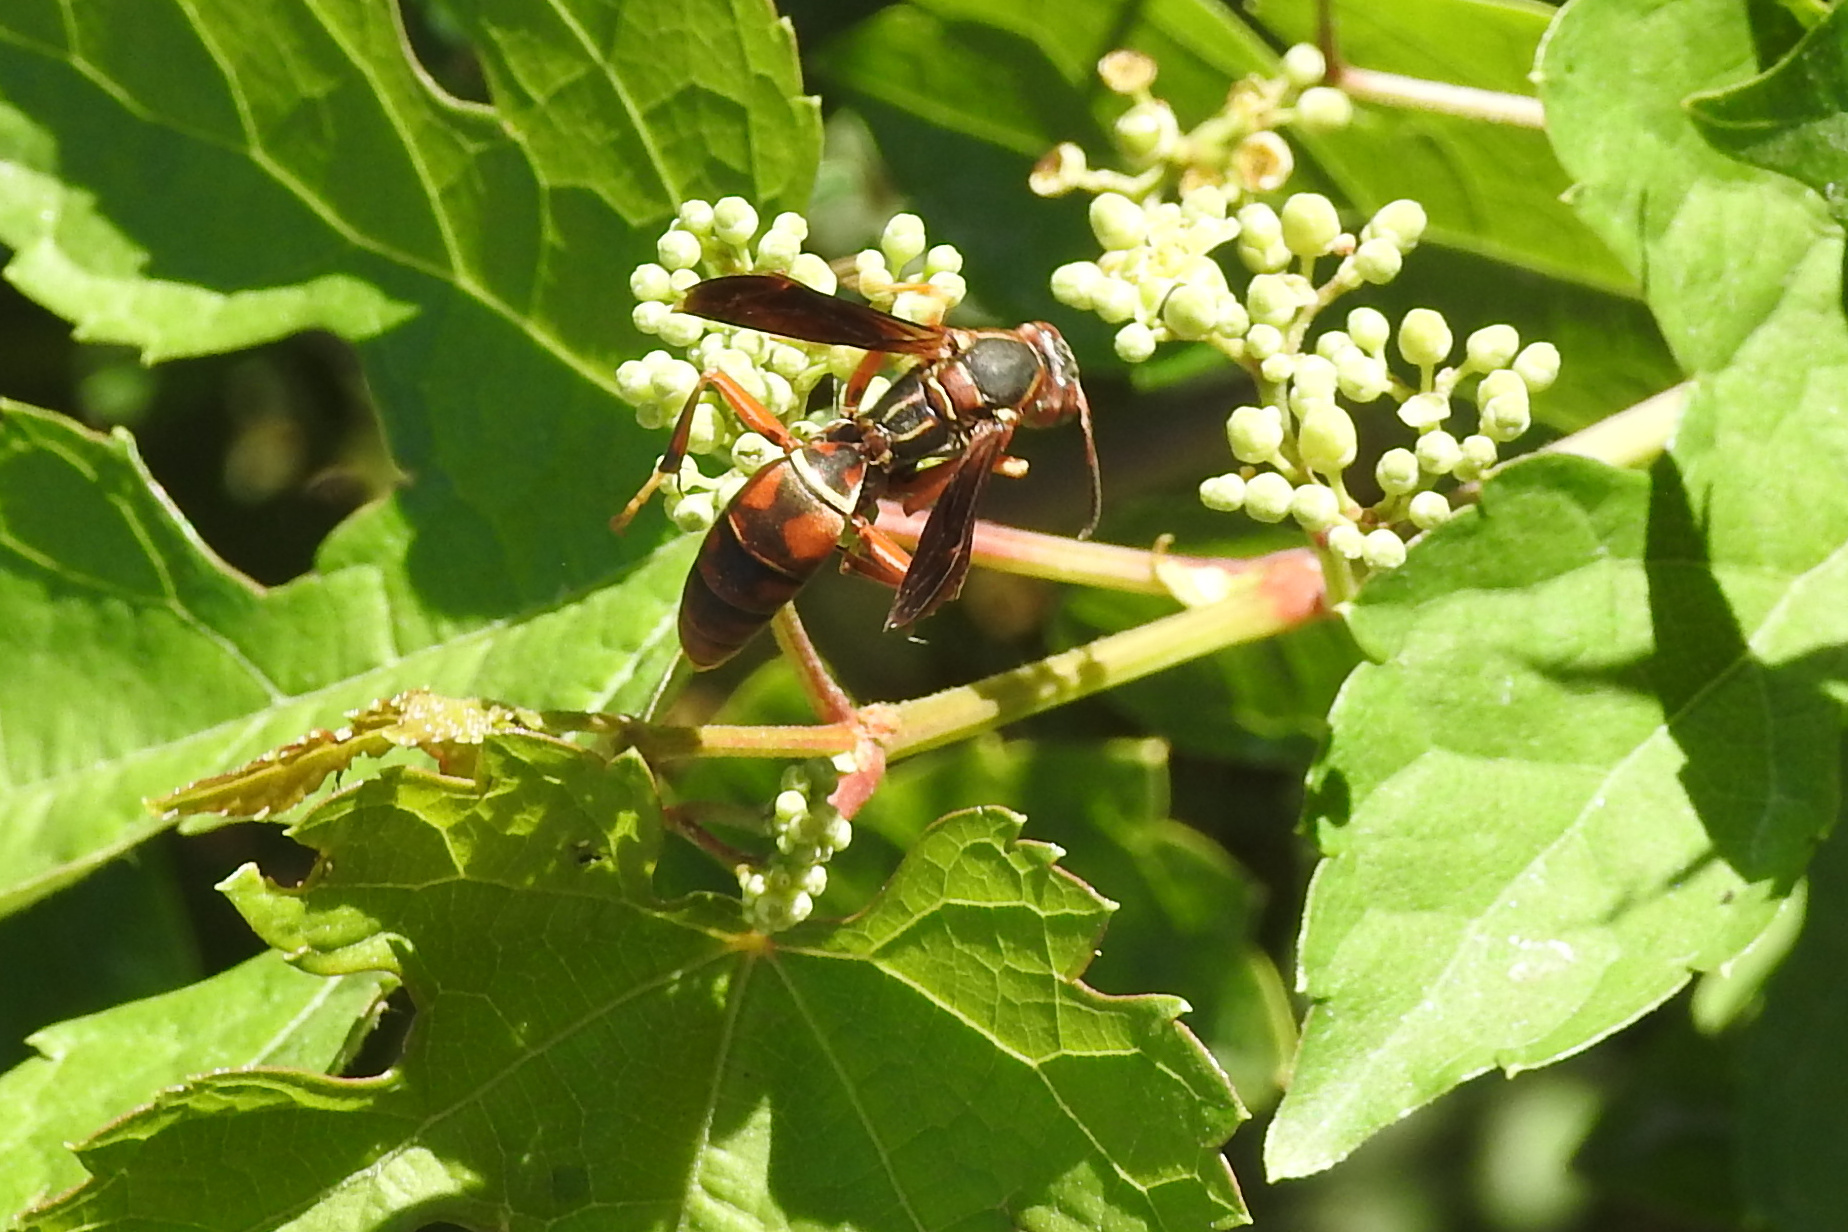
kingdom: Animalia
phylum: Arthropoda
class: Insecta
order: Hymenoptera
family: Eumenidae
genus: Polistes
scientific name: Polistes fuscatus
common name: Dark paper wasp
